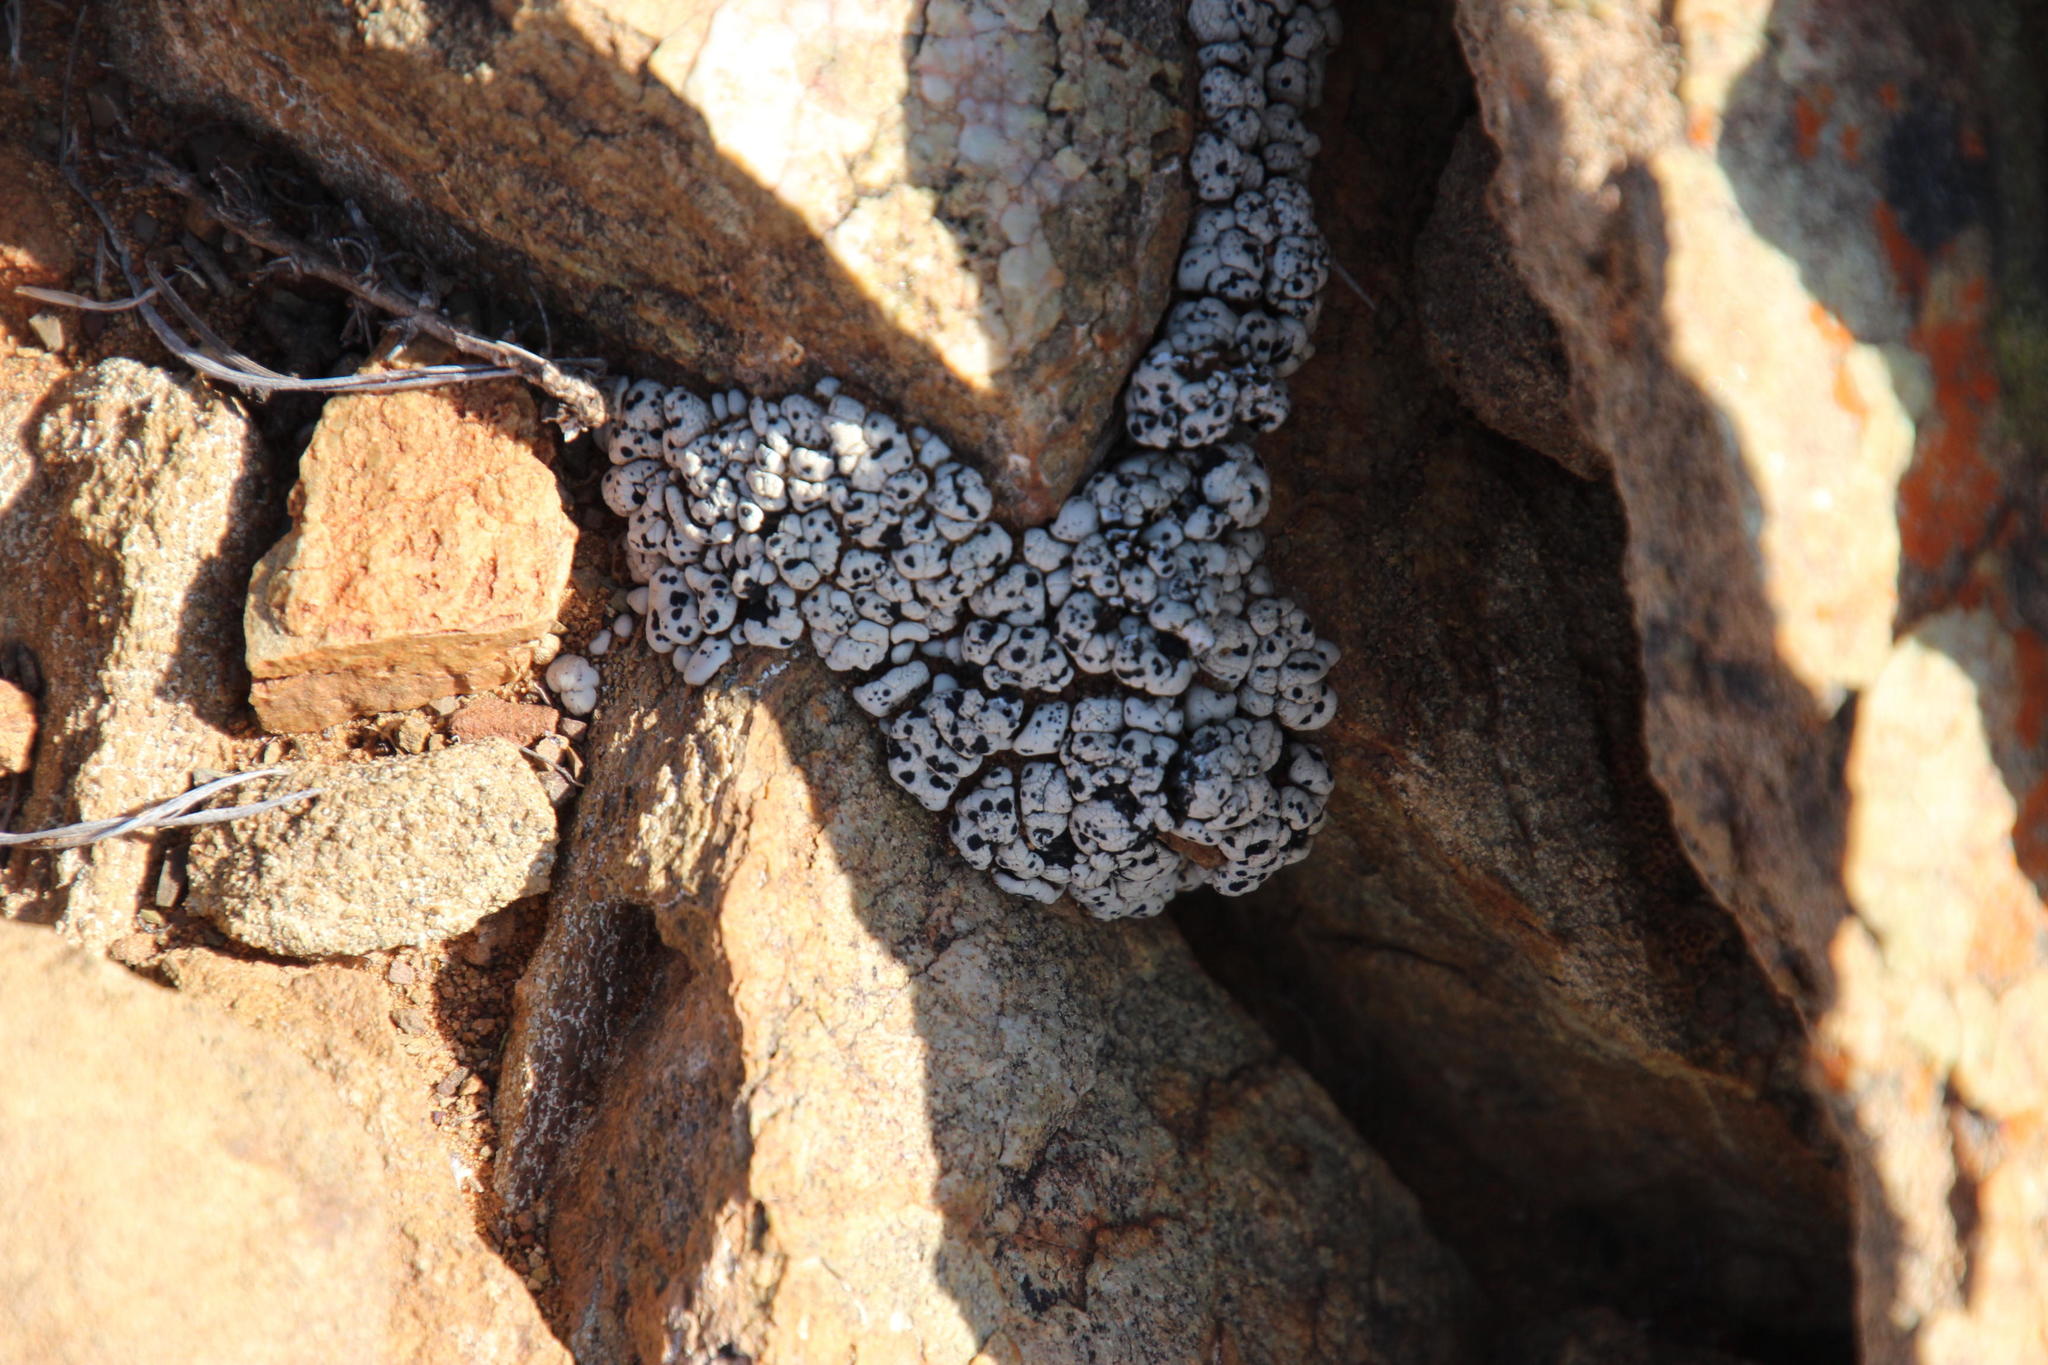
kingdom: Fungi
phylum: Ascomycota
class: Lecanoromycetes
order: Lecanorales
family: Ramalinaceae
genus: Rolfidium
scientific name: Rolfidium bumammum
